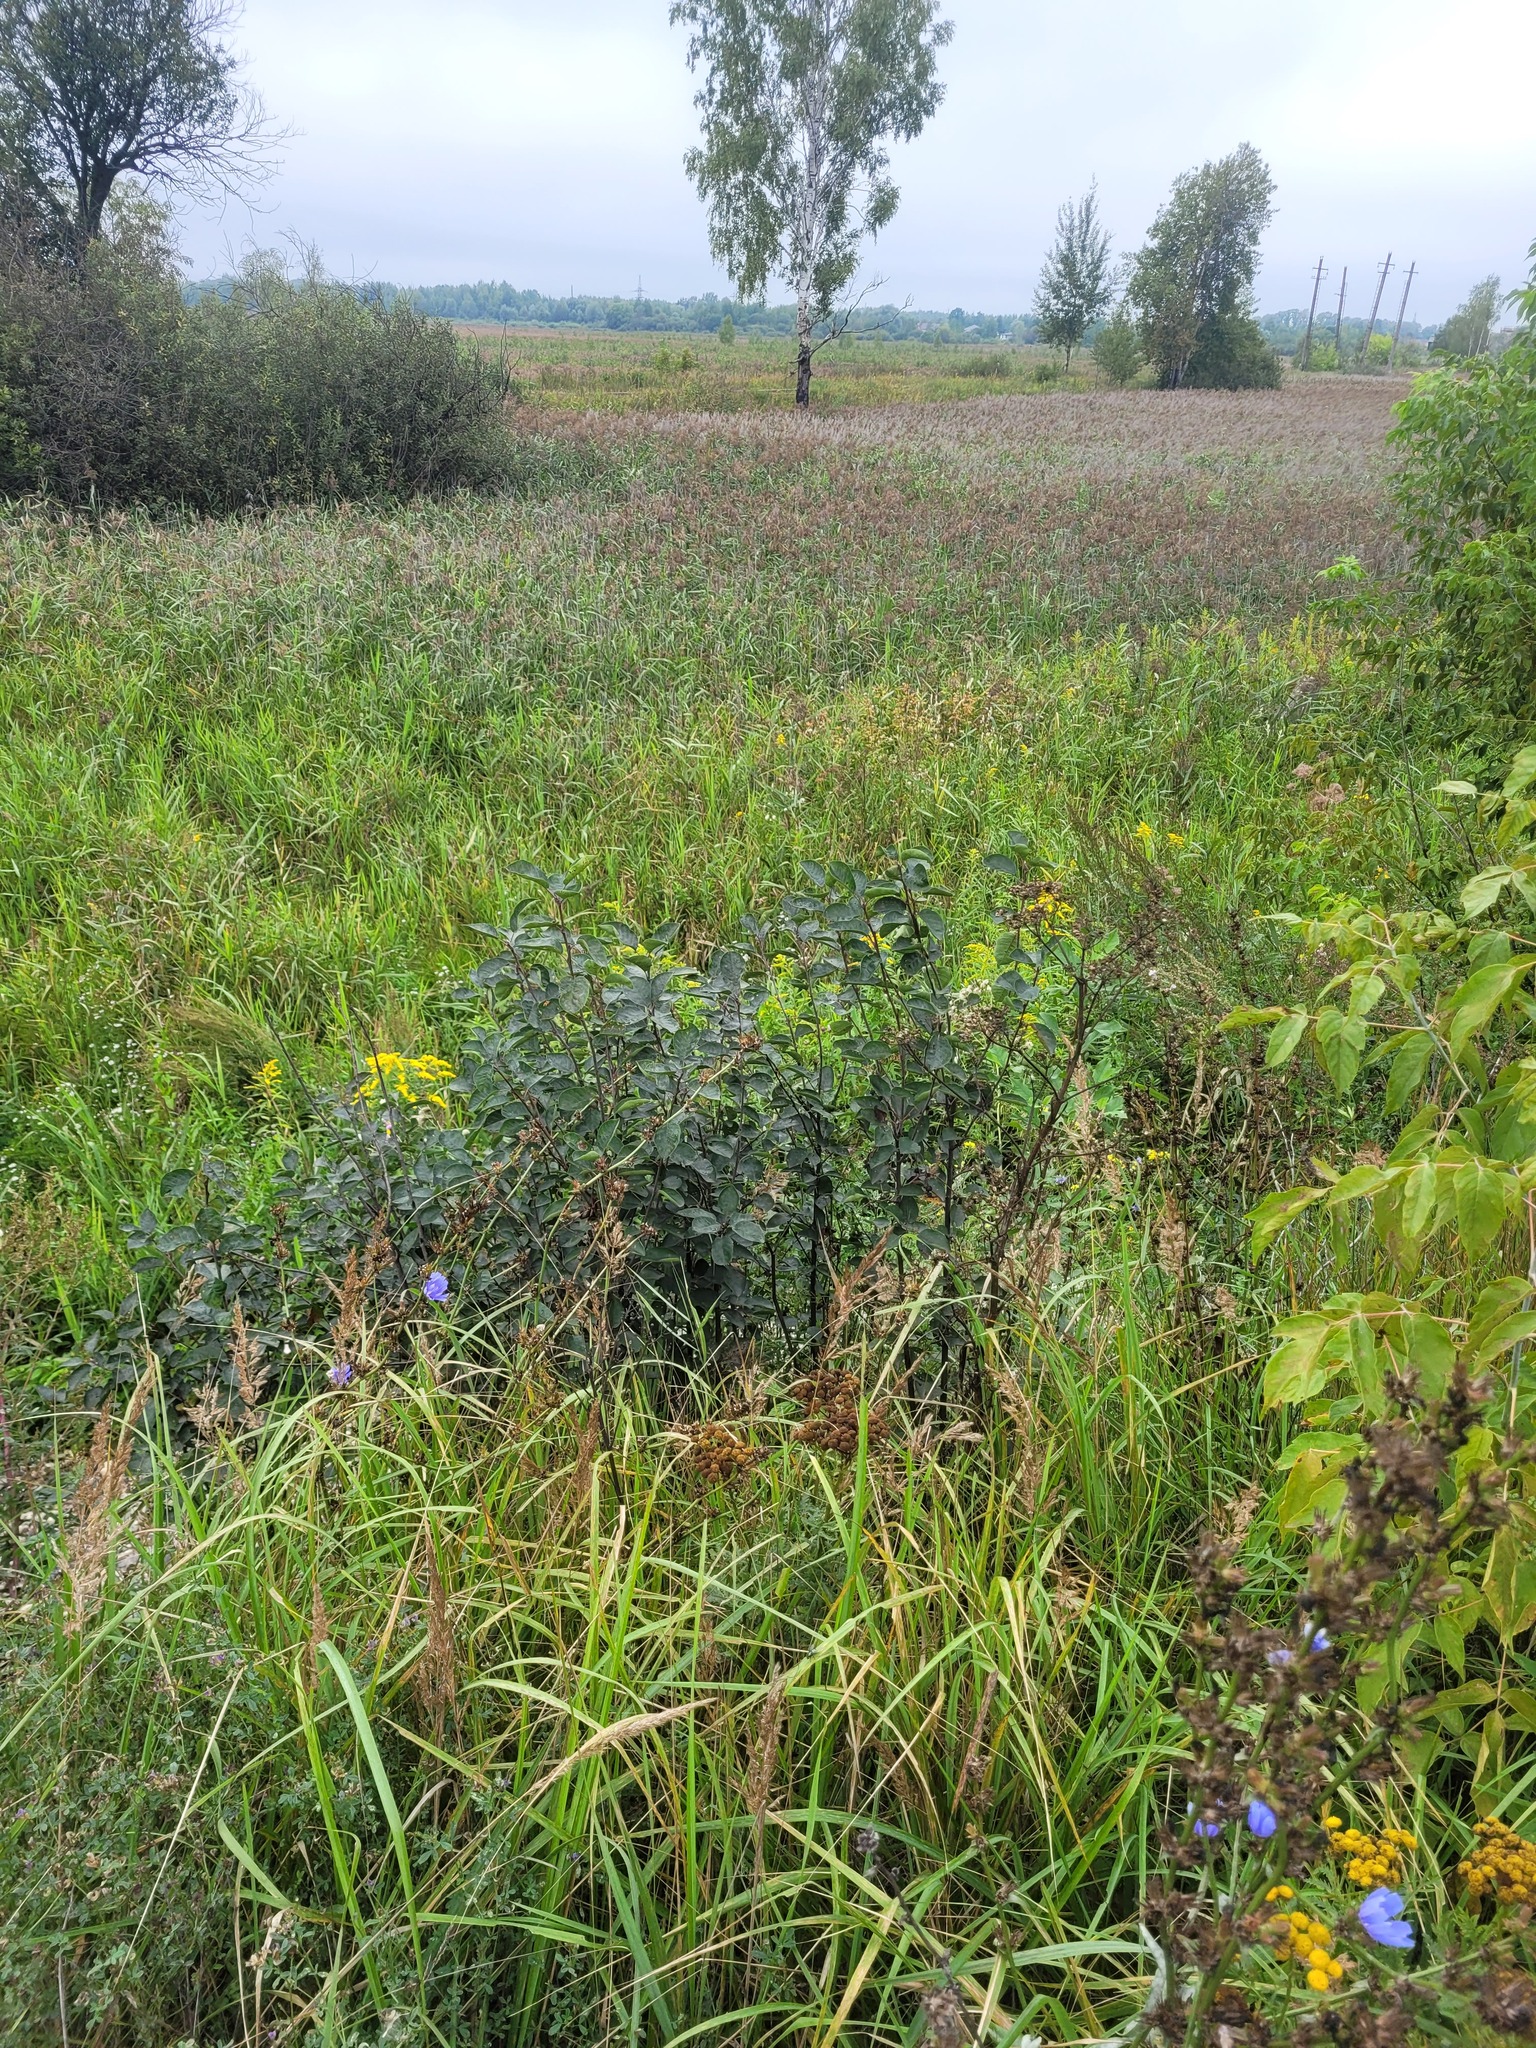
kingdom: Plantae
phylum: Tracheophyta
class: Magnoliopsida
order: Rosales
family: Rosaceae
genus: Amelanchier
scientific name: Amelanchier
